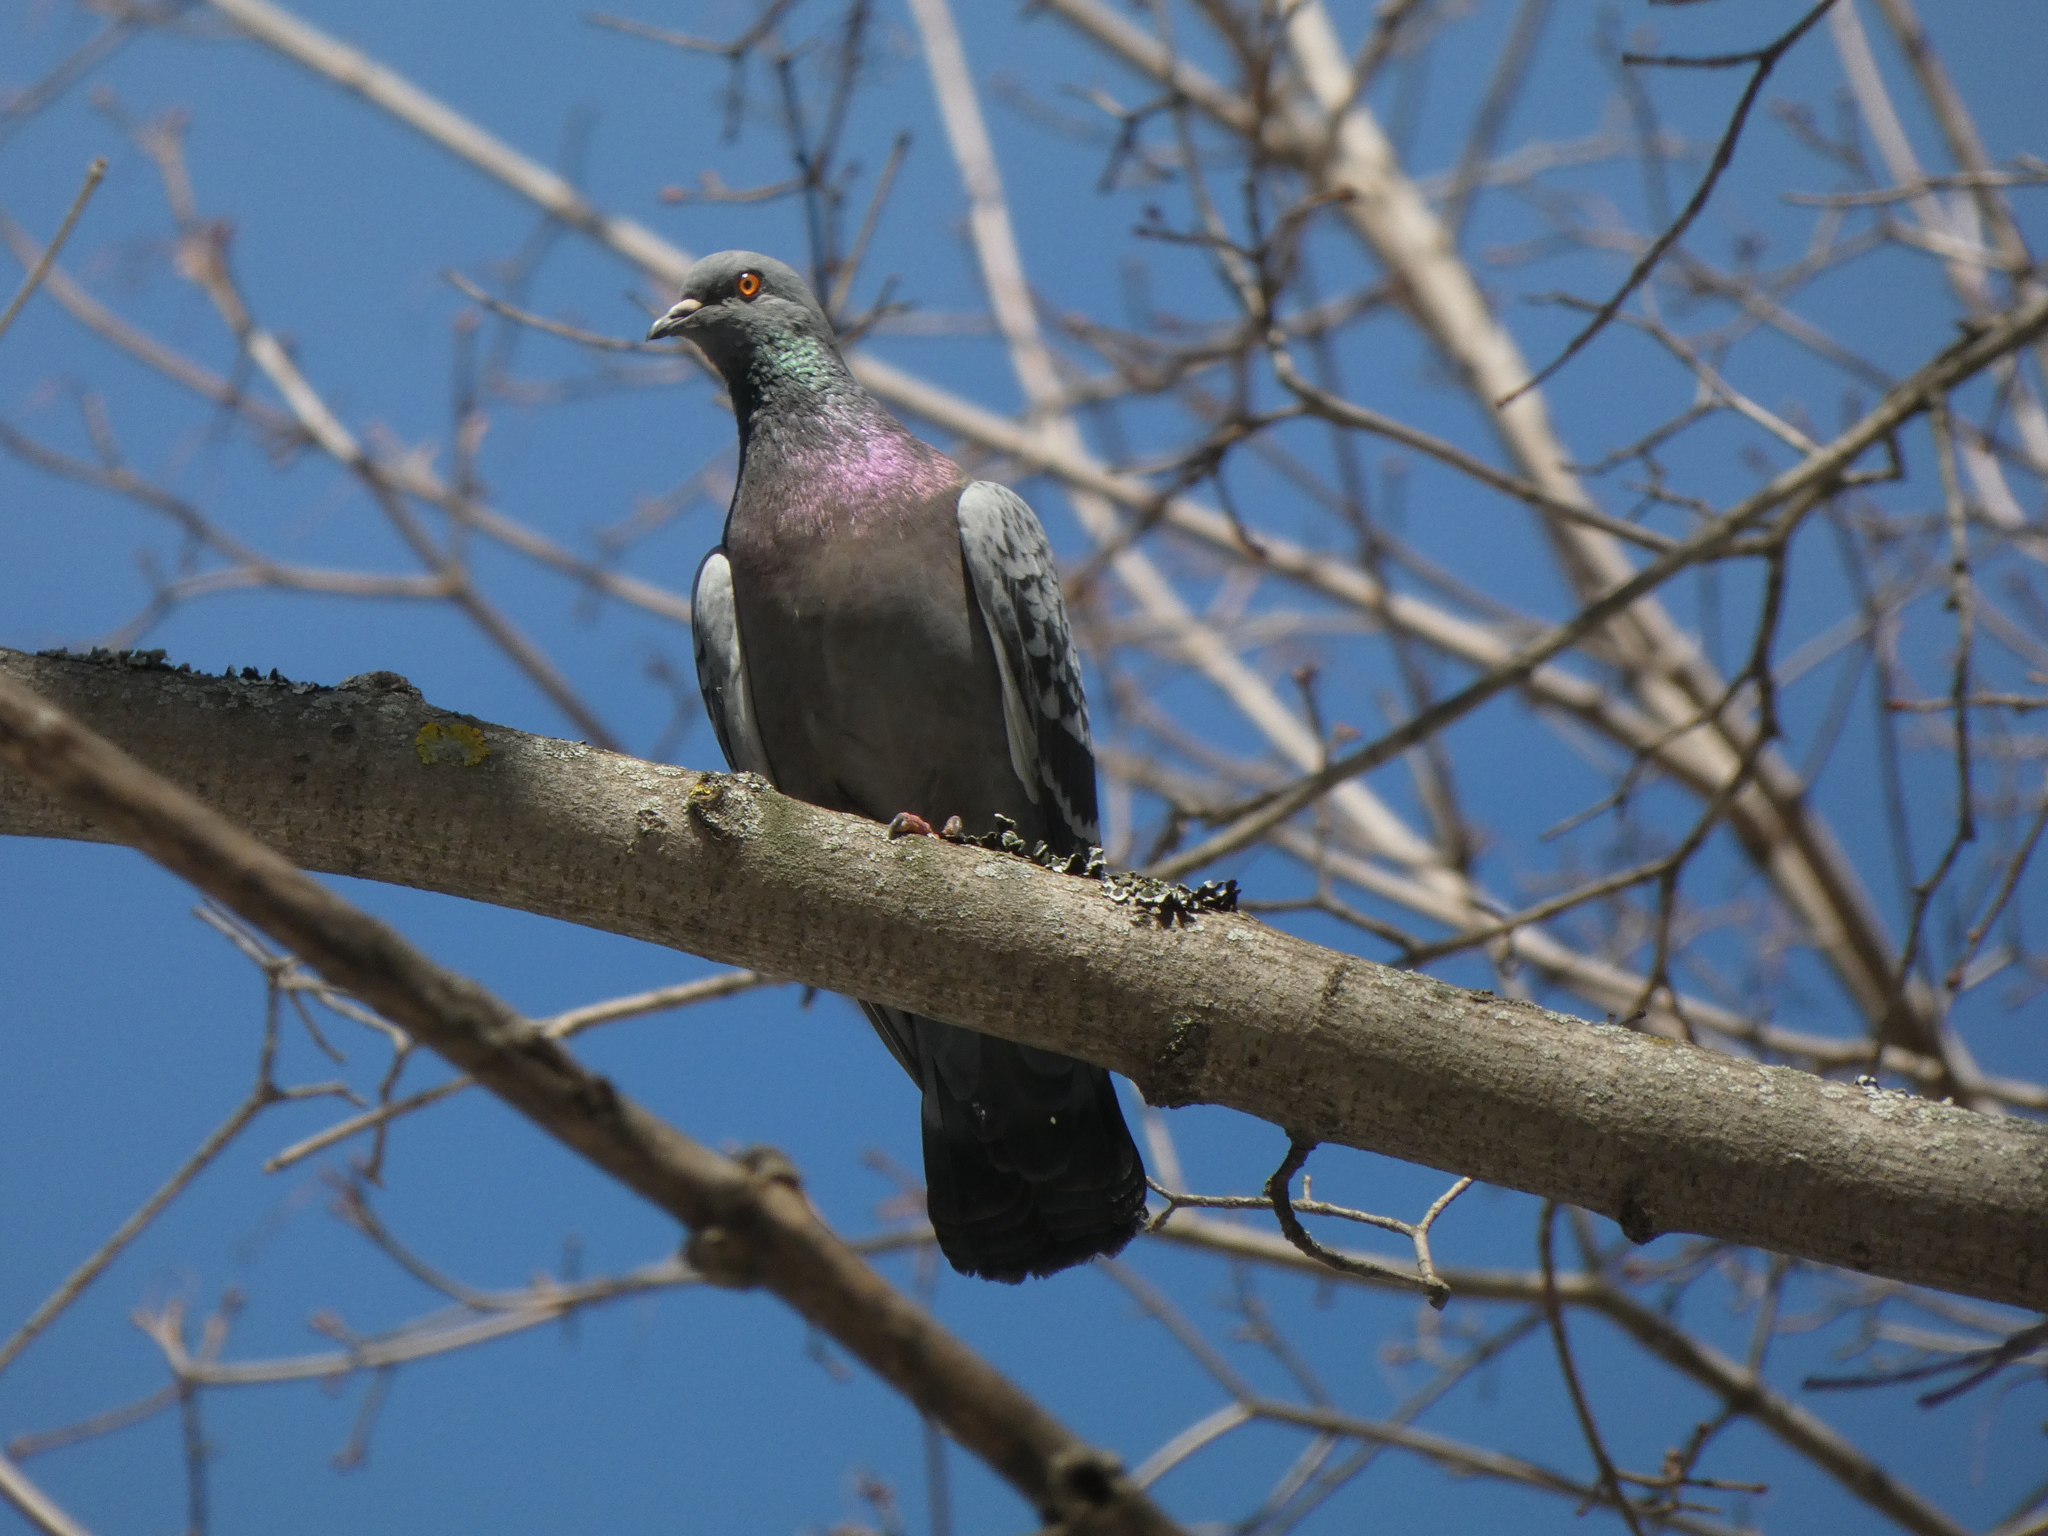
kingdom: Animalia
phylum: Chordata
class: Aves
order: Columbiformes
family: Columbidae
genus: Columba
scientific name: Columba livia
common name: Rock pigeon
